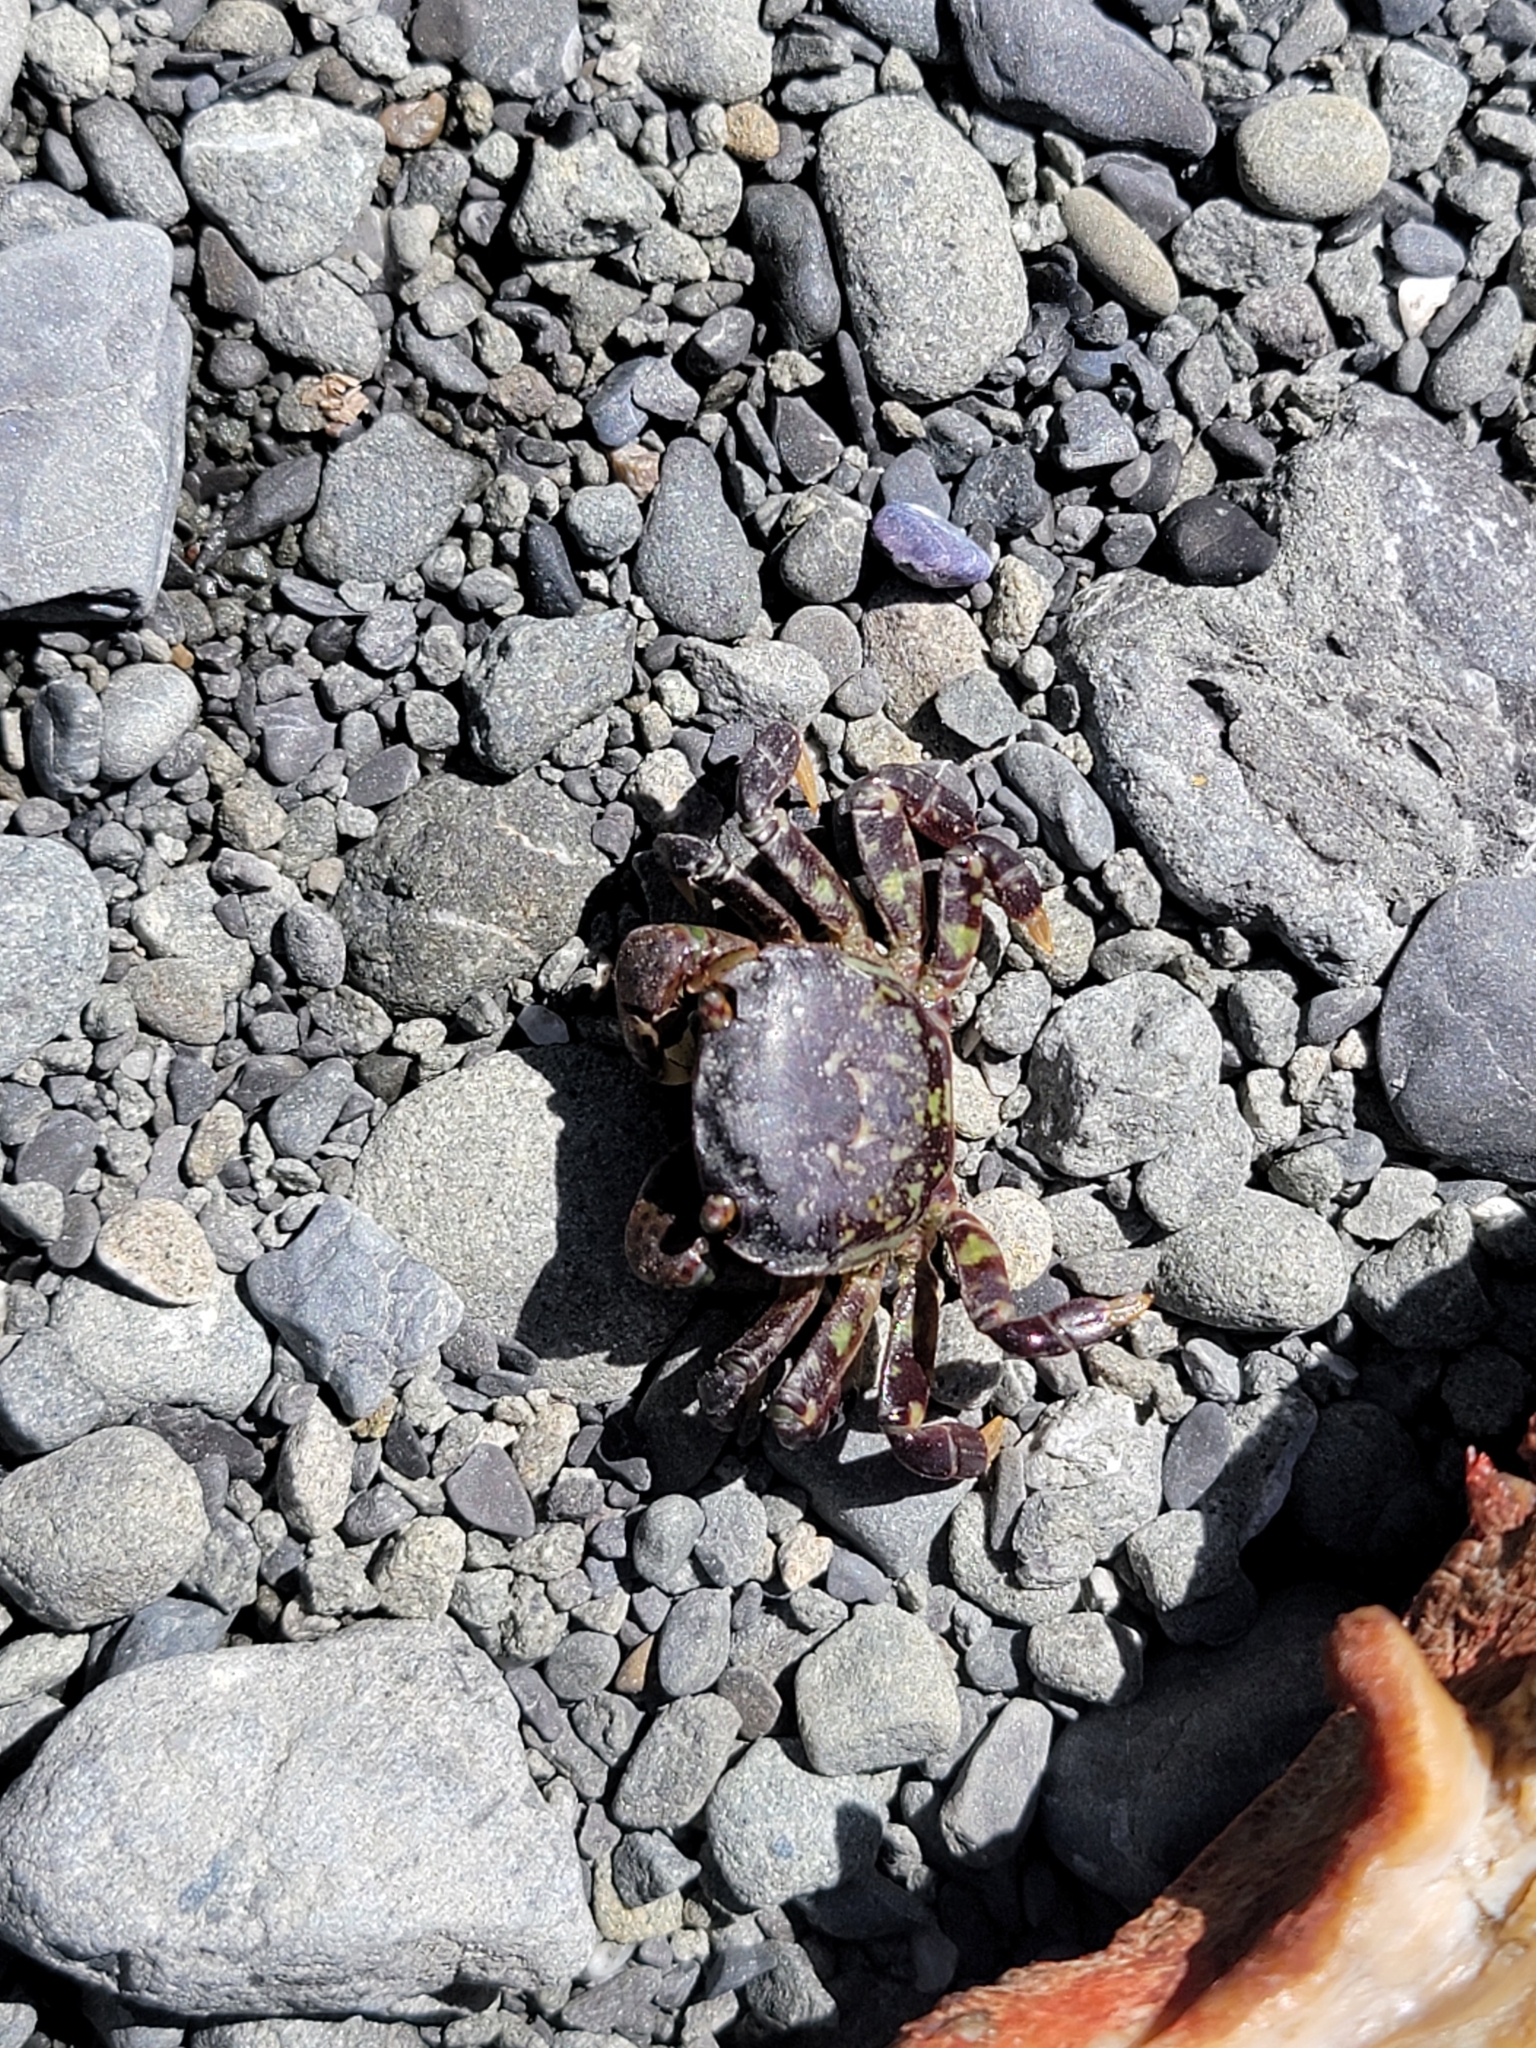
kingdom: Animalia
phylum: Arthropoda
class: Malacostraca
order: Decapoda
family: Varunidae
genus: Hemigrapsus
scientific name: Hemigrapsus nudus
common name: Purple shore crab
